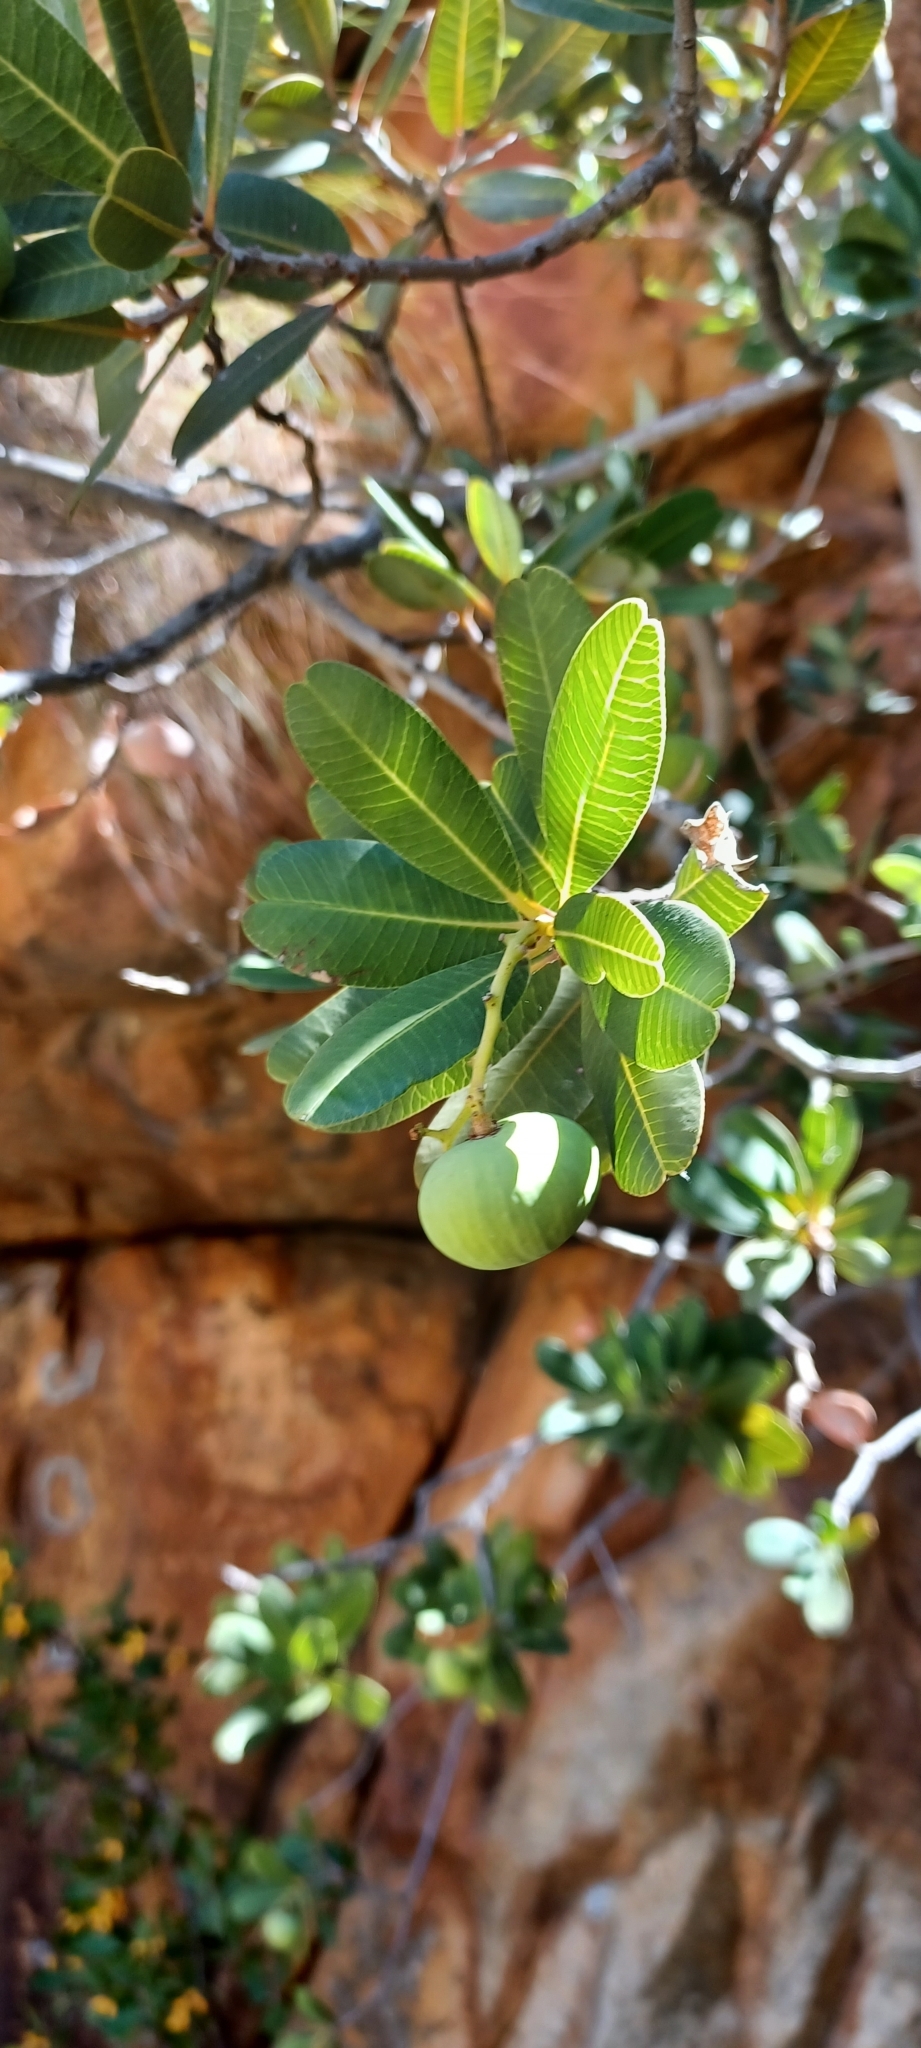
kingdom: Plantae
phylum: Tracheophyta
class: Magnoliopsida
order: Sapindales
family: Anacardiaceae
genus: Heeria
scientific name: Heeria argentea
